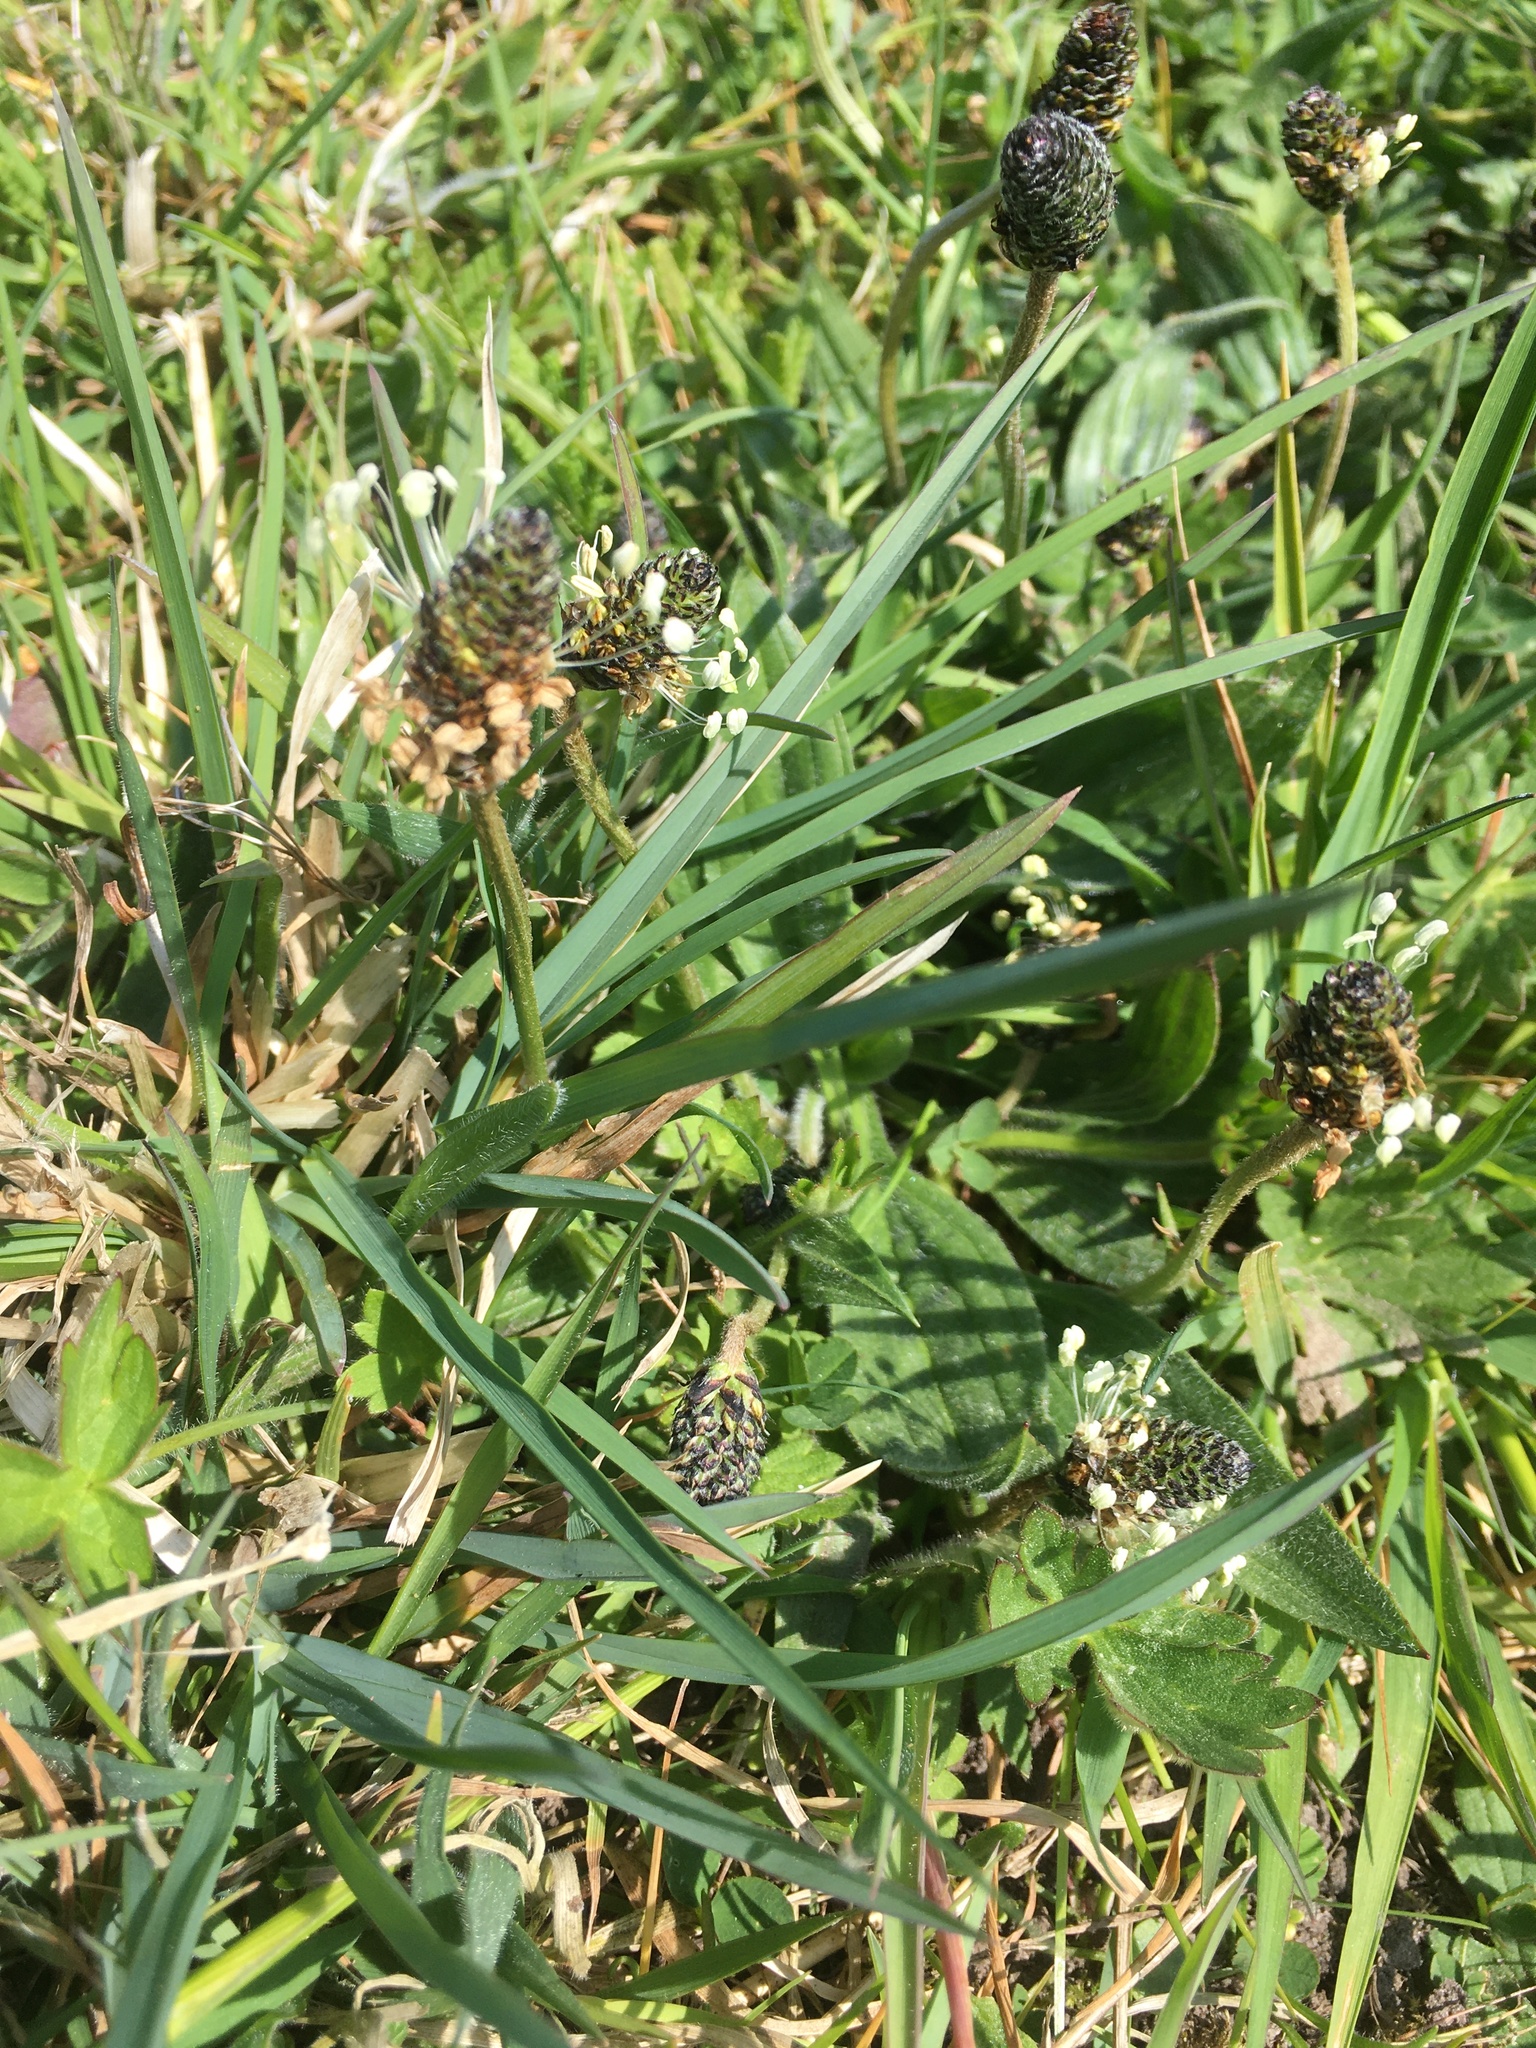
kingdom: Plantae
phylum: Tracheophyta
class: Magnoliopsida
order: Lamiales
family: Plantaginaceae
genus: Plantago
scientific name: Plantago lanceolata
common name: Ribwort plantain
